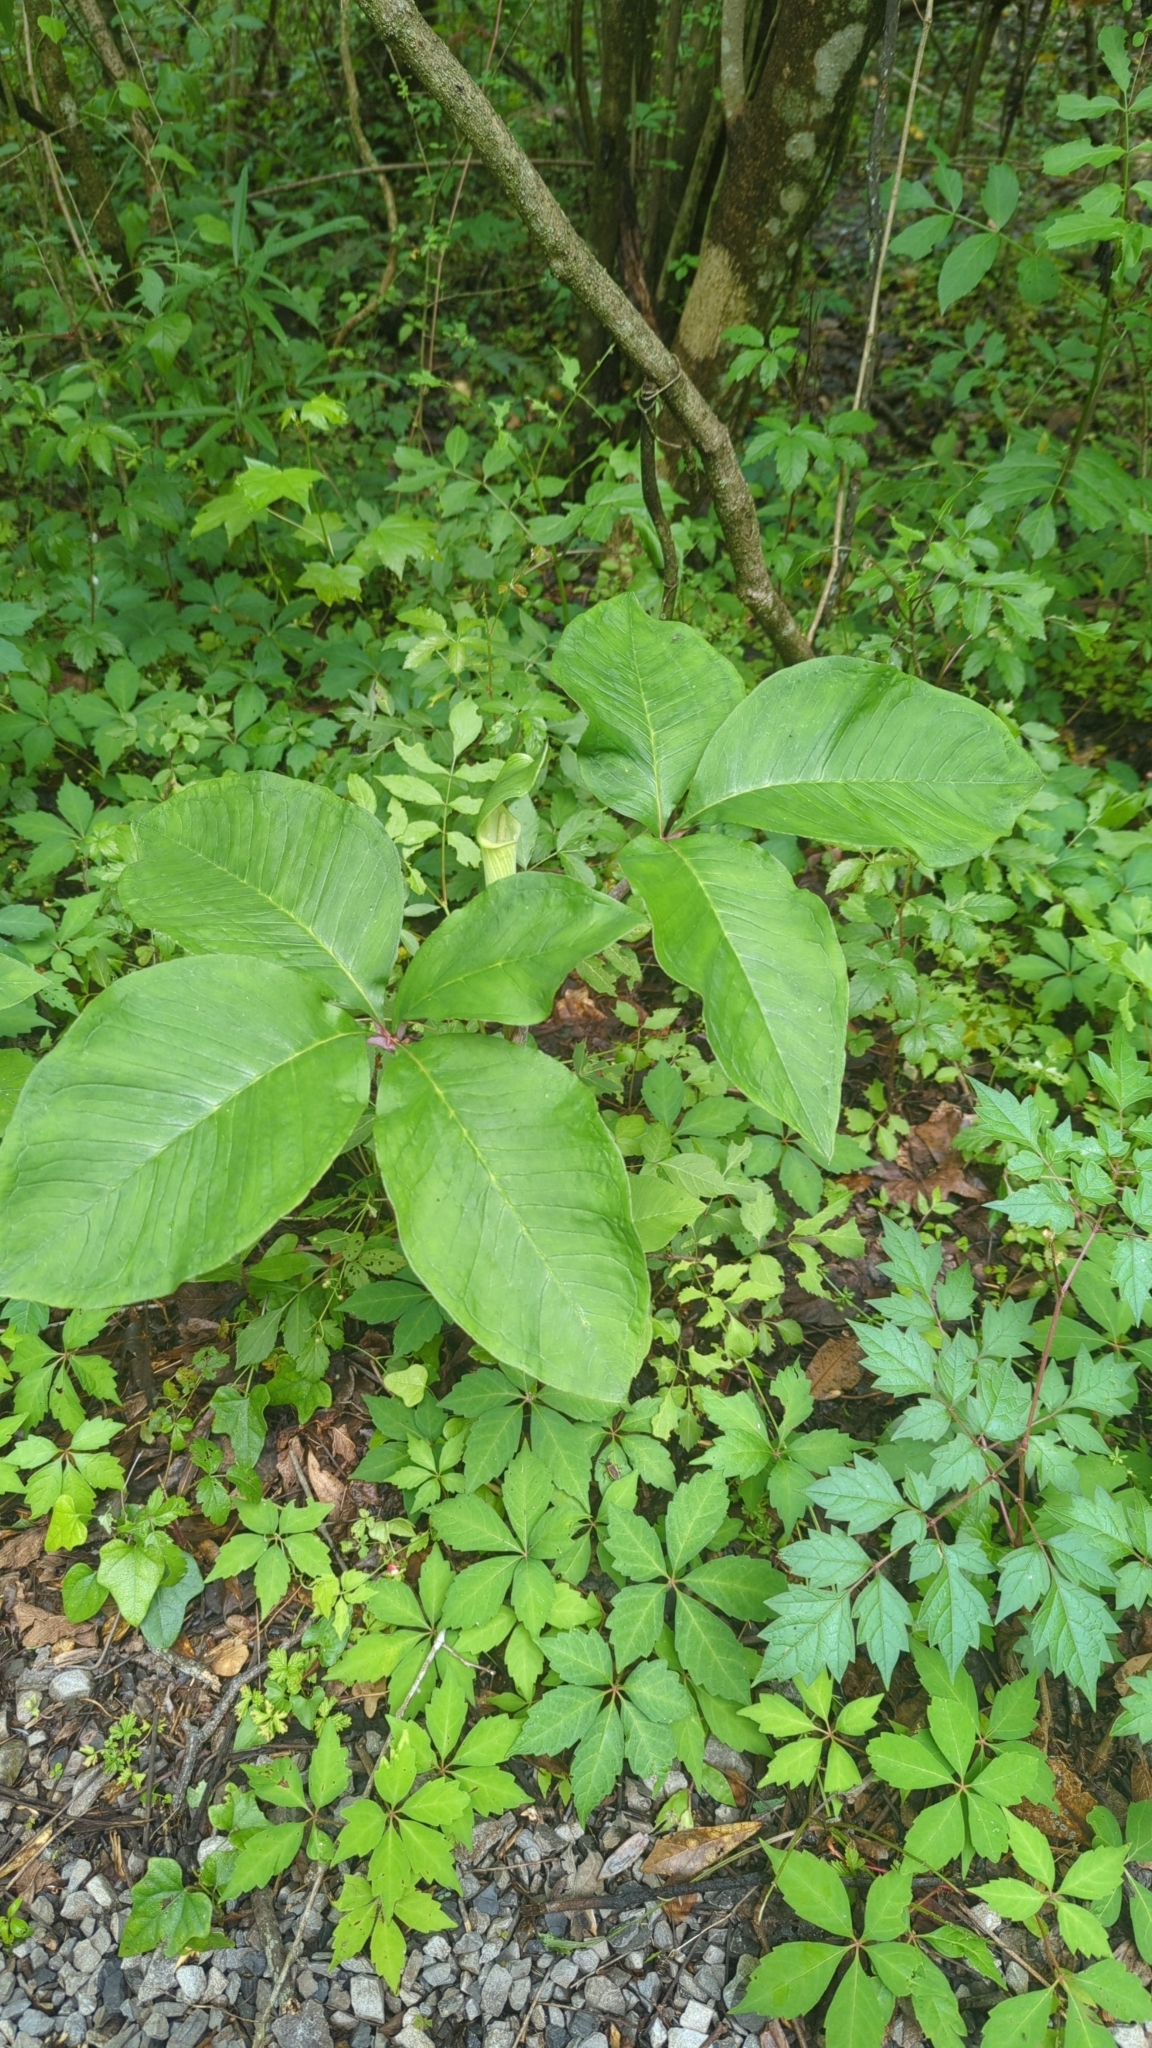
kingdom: Plantae
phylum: Tracheophyta
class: Liliopsida
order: Alismatales
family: Araceae
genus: Arisaema
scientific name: Arisaema quinatum
